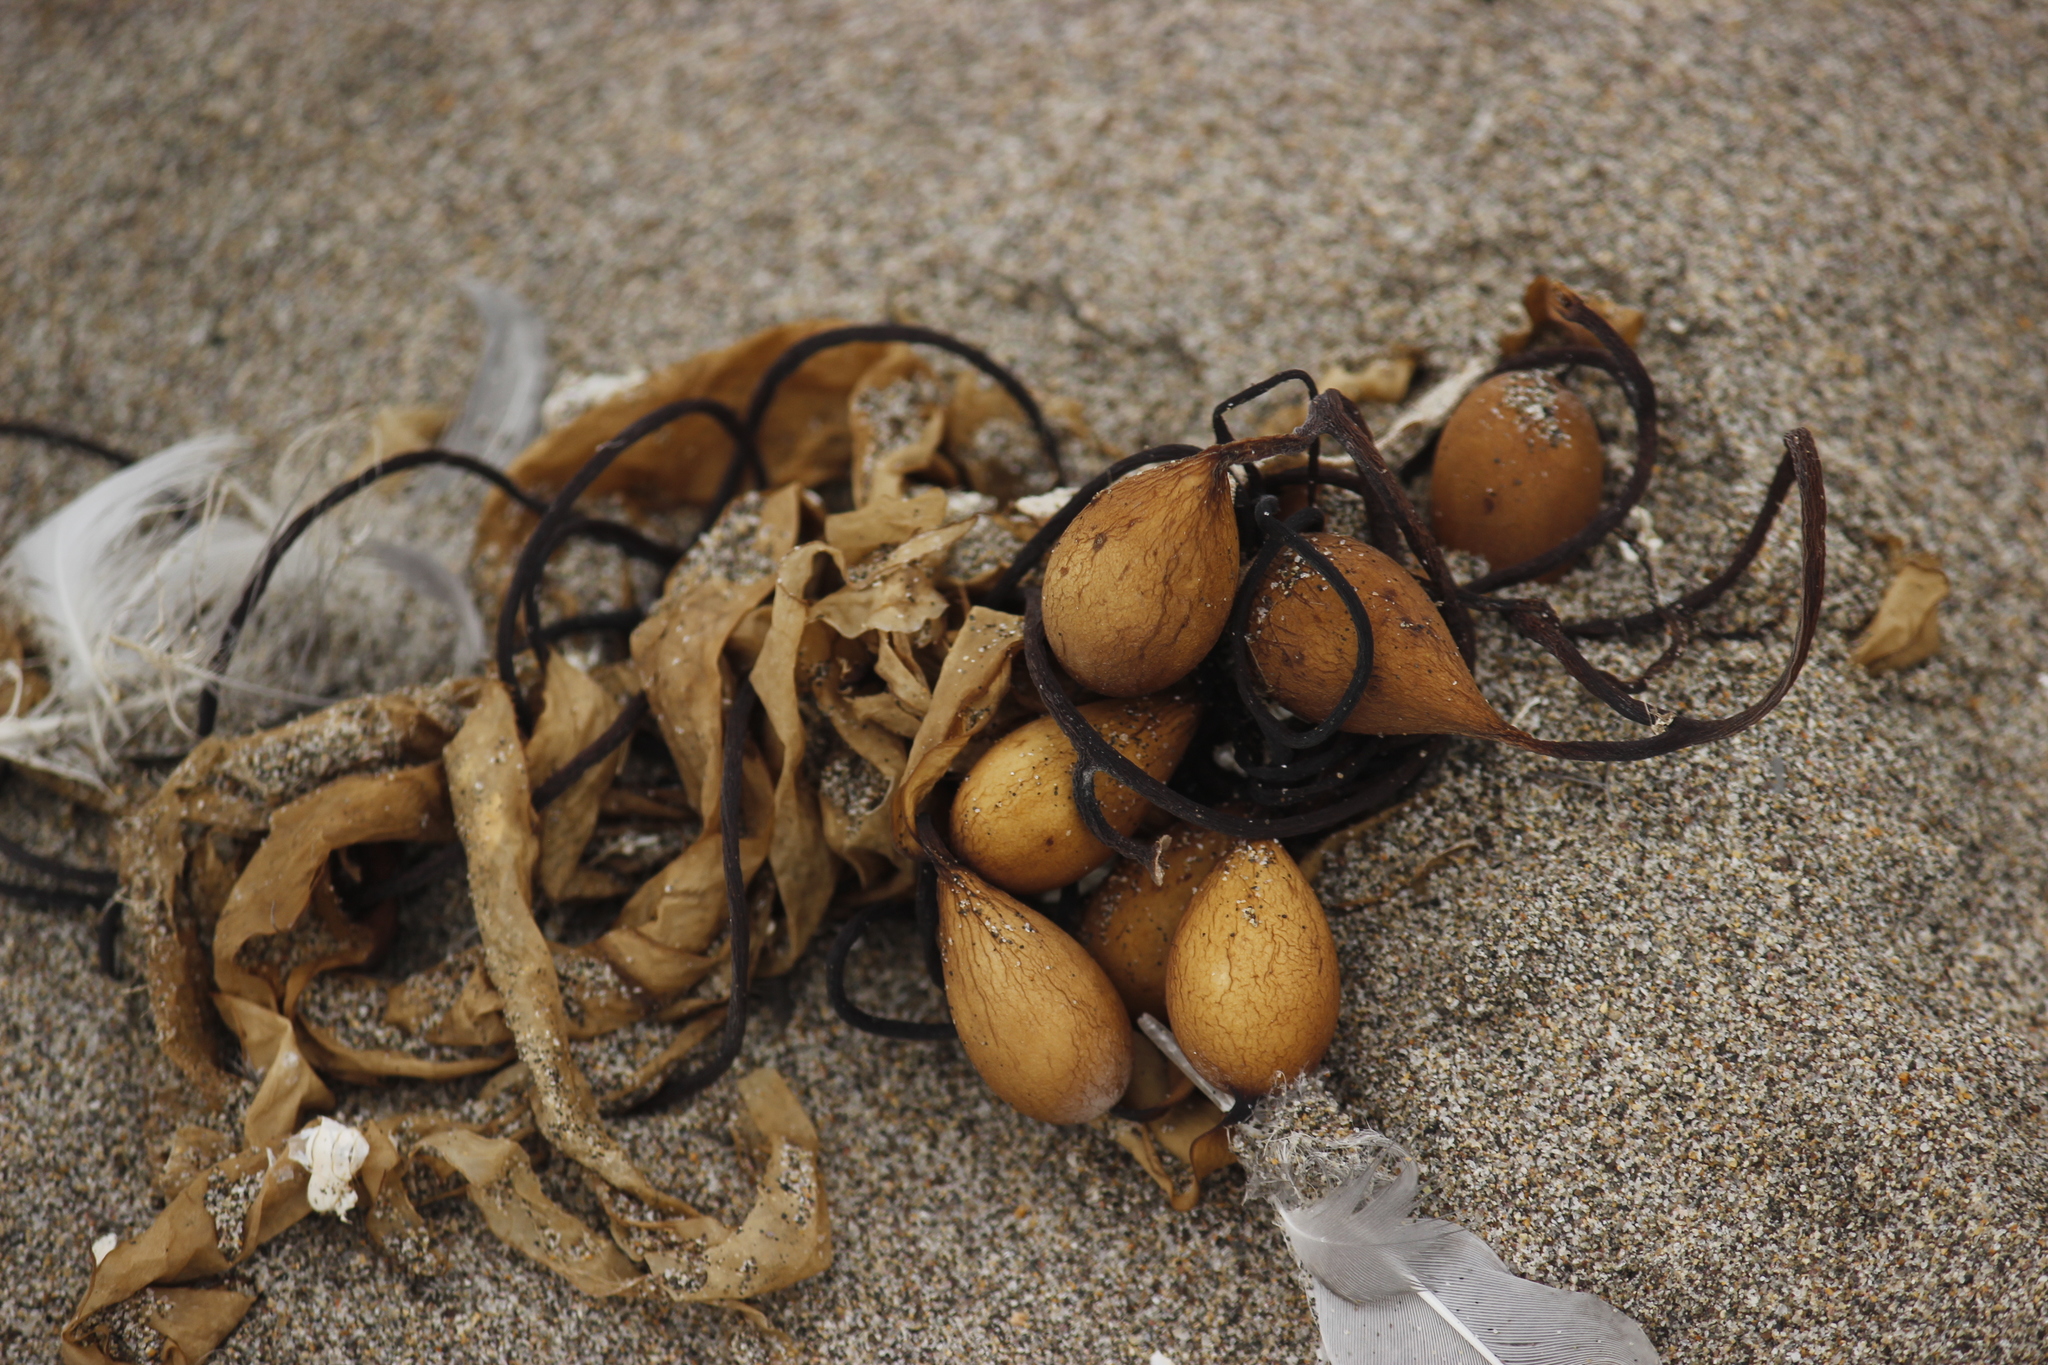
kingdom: Chromista
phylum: Ochrophyta
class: Phaeophyceae
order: Laminariales
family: Laminariaceae
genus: Macrocystis
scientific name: Macrocystis pyrifera
